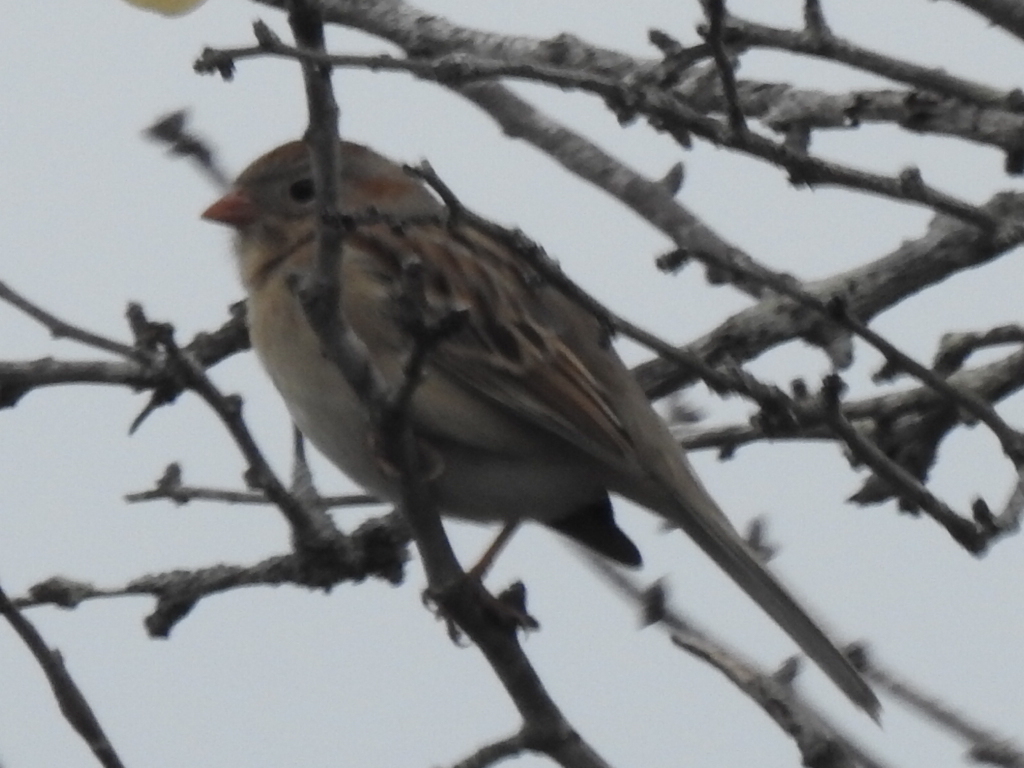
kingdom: Animalia
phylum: Chordata
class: Aves
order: Passeriformes
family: Passerellidae
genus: Spizella
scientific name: Spizella pusilla
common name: Field sparrow
